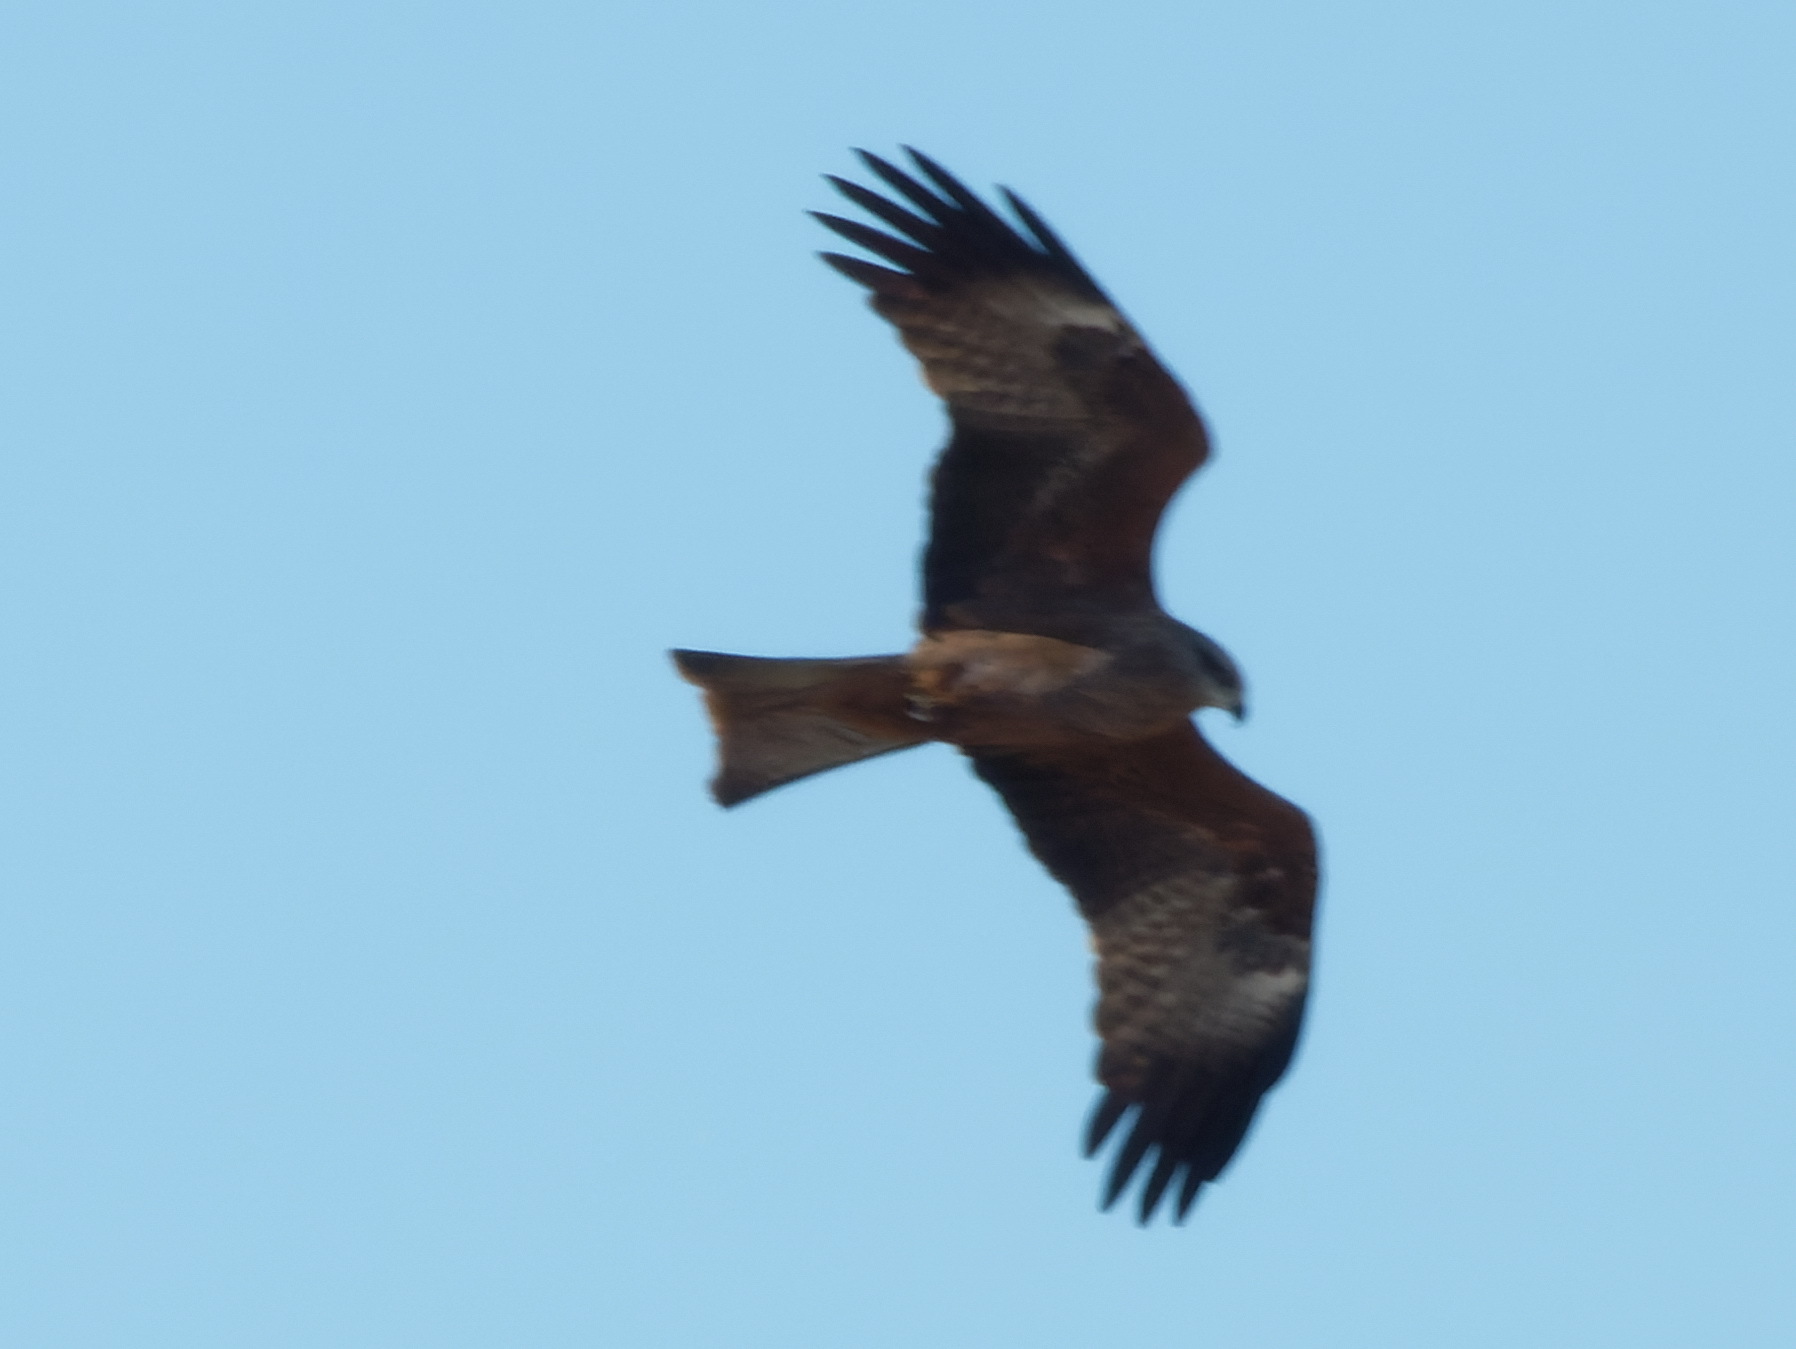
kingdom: Animalia
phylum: Chordata
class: Aves
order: Accipitriformes
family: Accipitridae
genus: Milvus
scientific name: Milvus migrans
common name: Black kite
